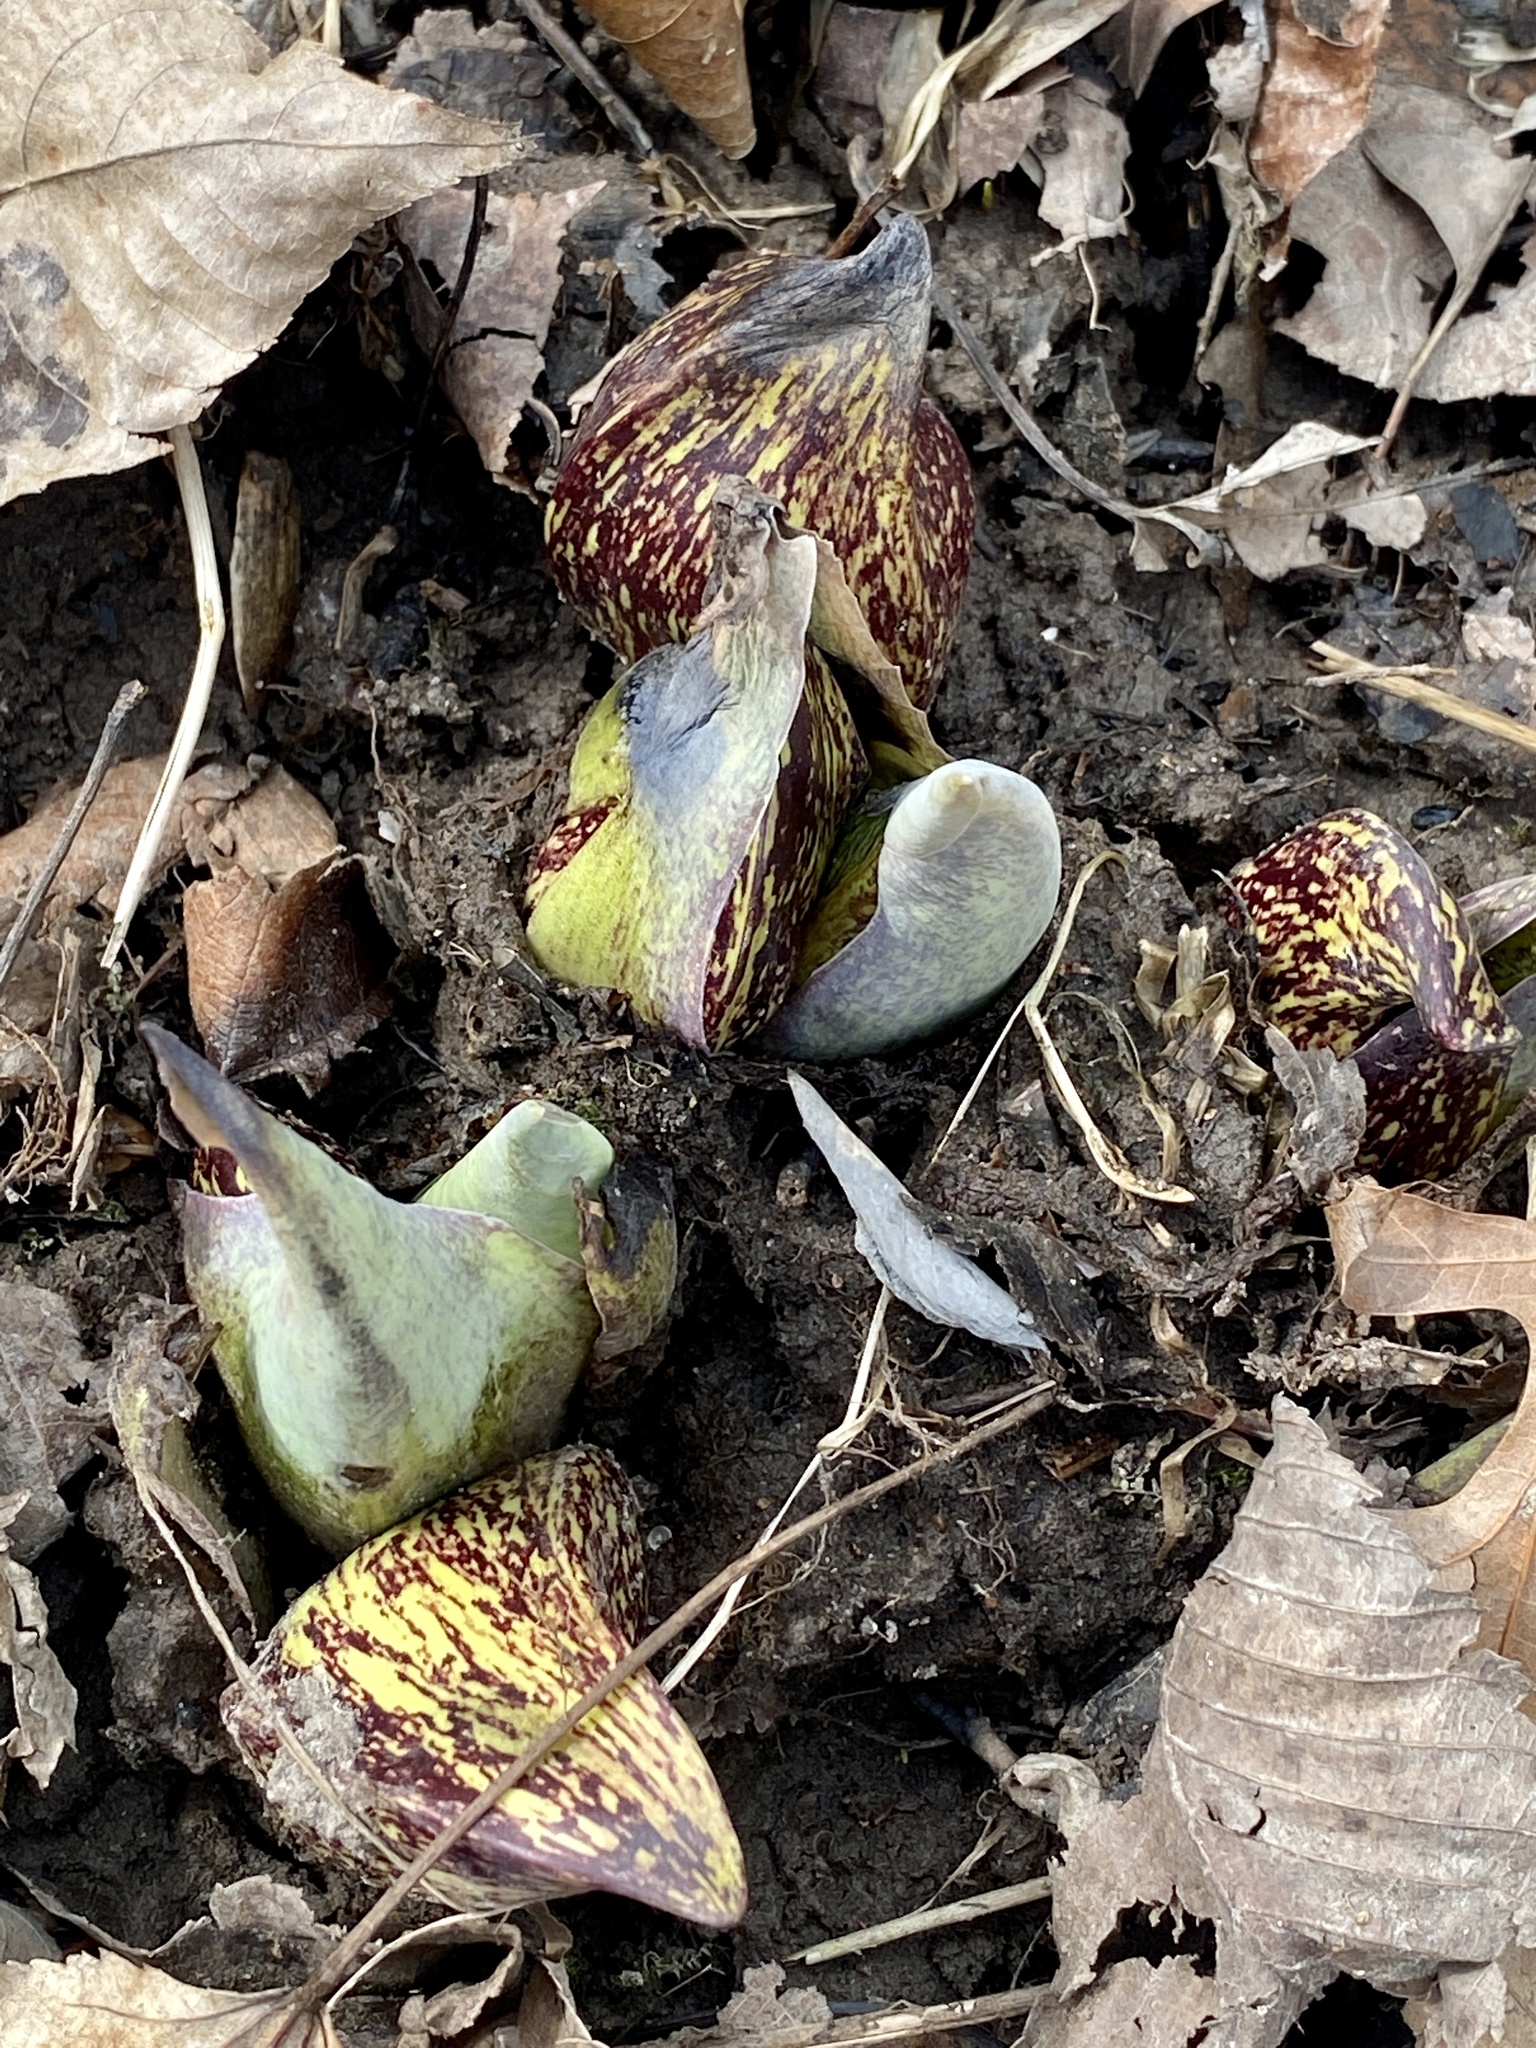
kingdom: Plantae
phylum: Tracheophyta
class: Liliopsida
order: Alismatales
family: Araceae
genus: Symplocarpus
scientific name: Symplocarpus foetidus
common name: Eastern skunk cabbage
